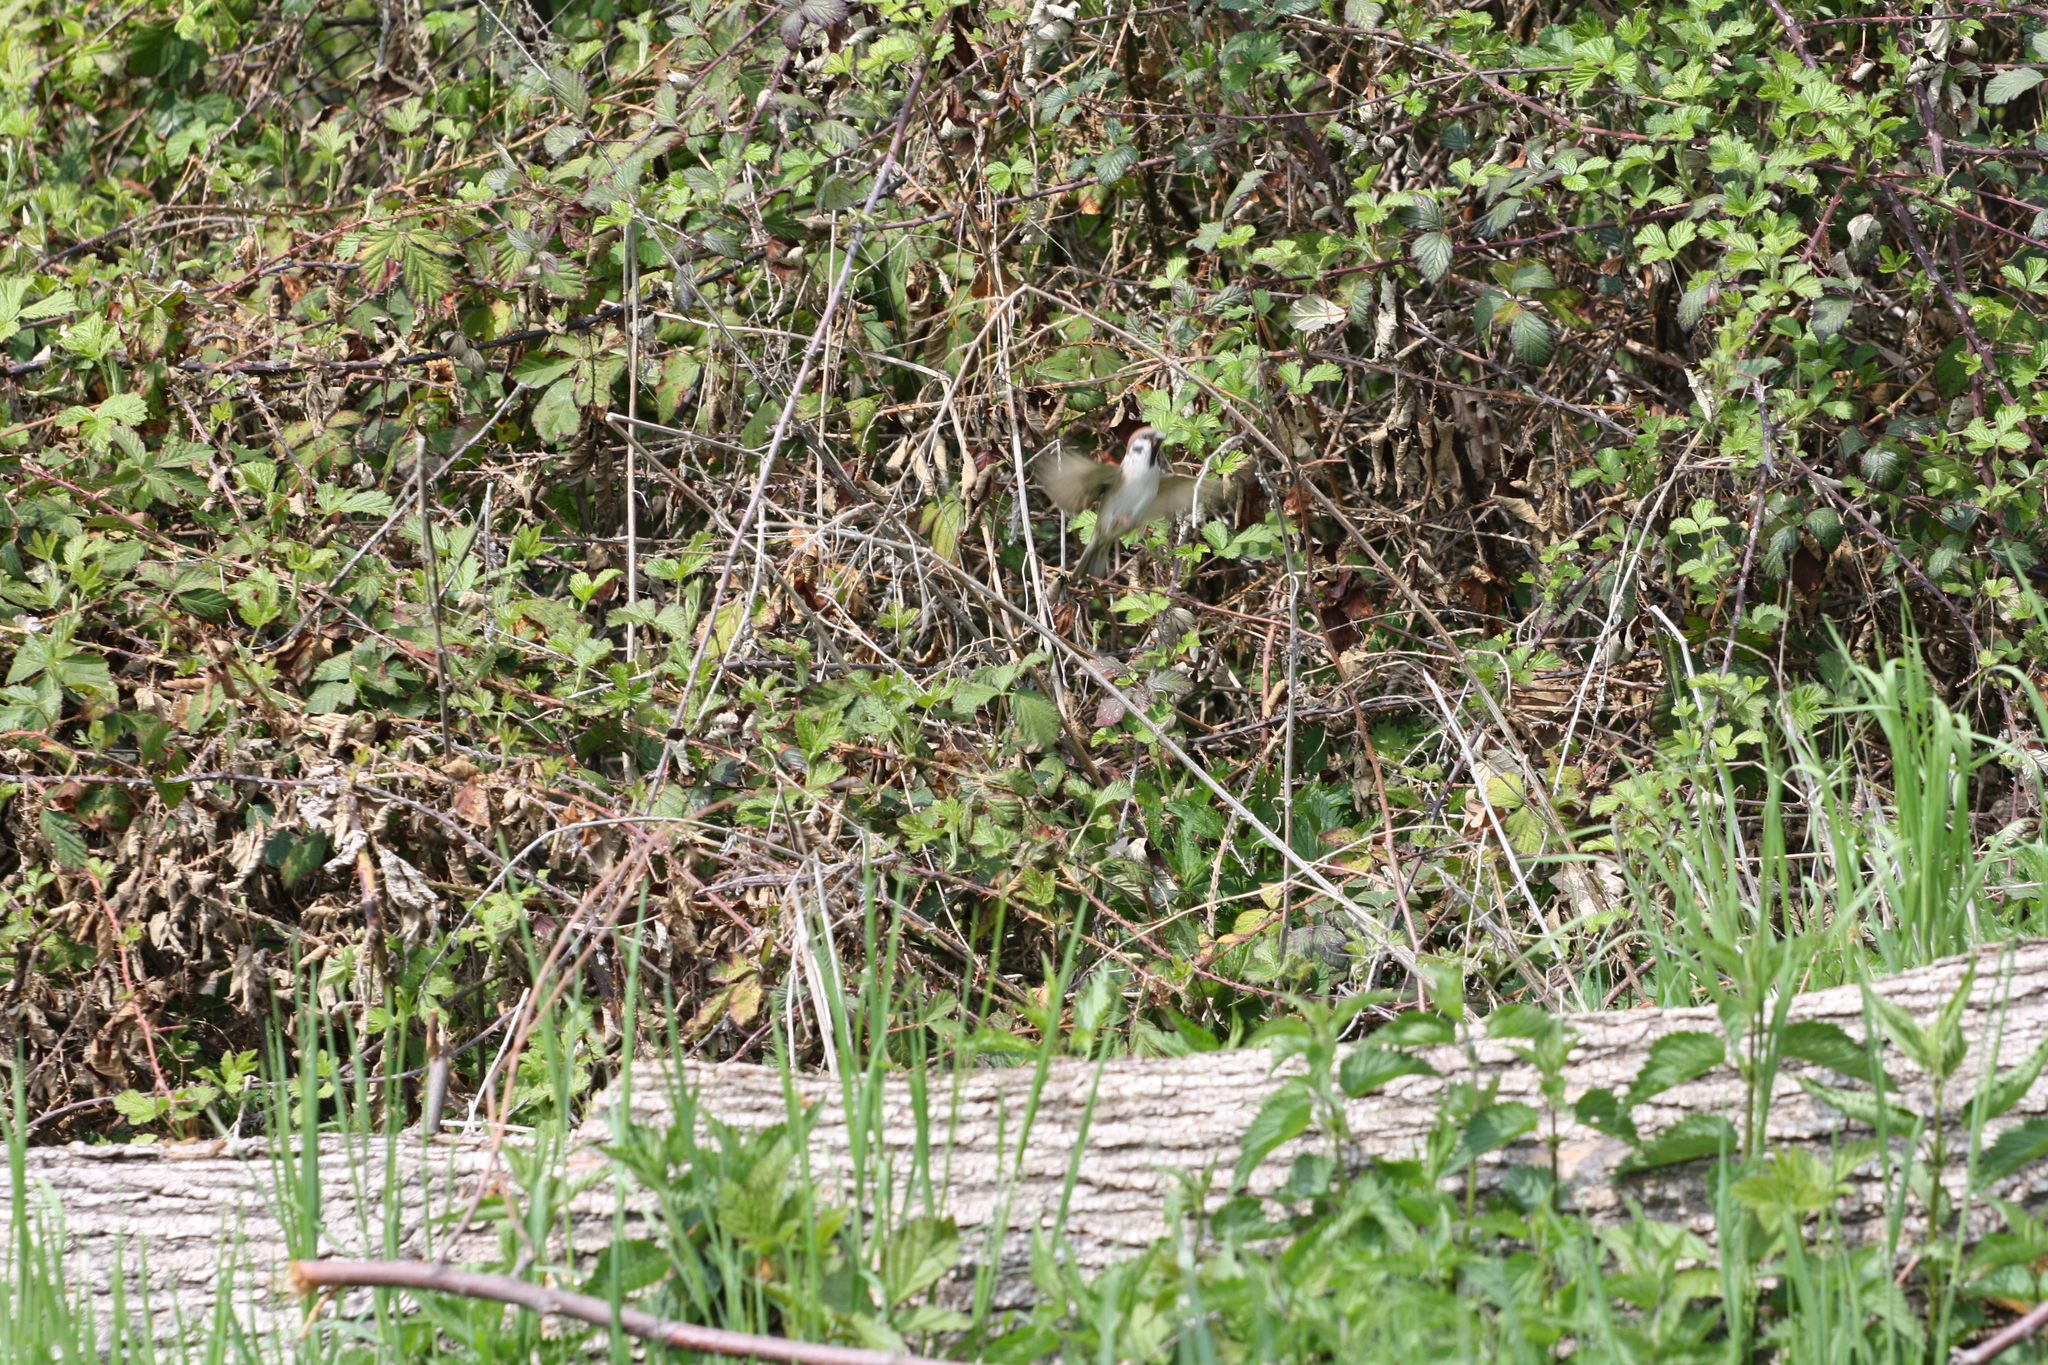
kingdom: Animalia
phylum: Chordata
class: Aves
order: Passeriformes
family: Passeridae
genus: Passer
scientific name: Passer montanus
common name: Eurasian tree sparrow
